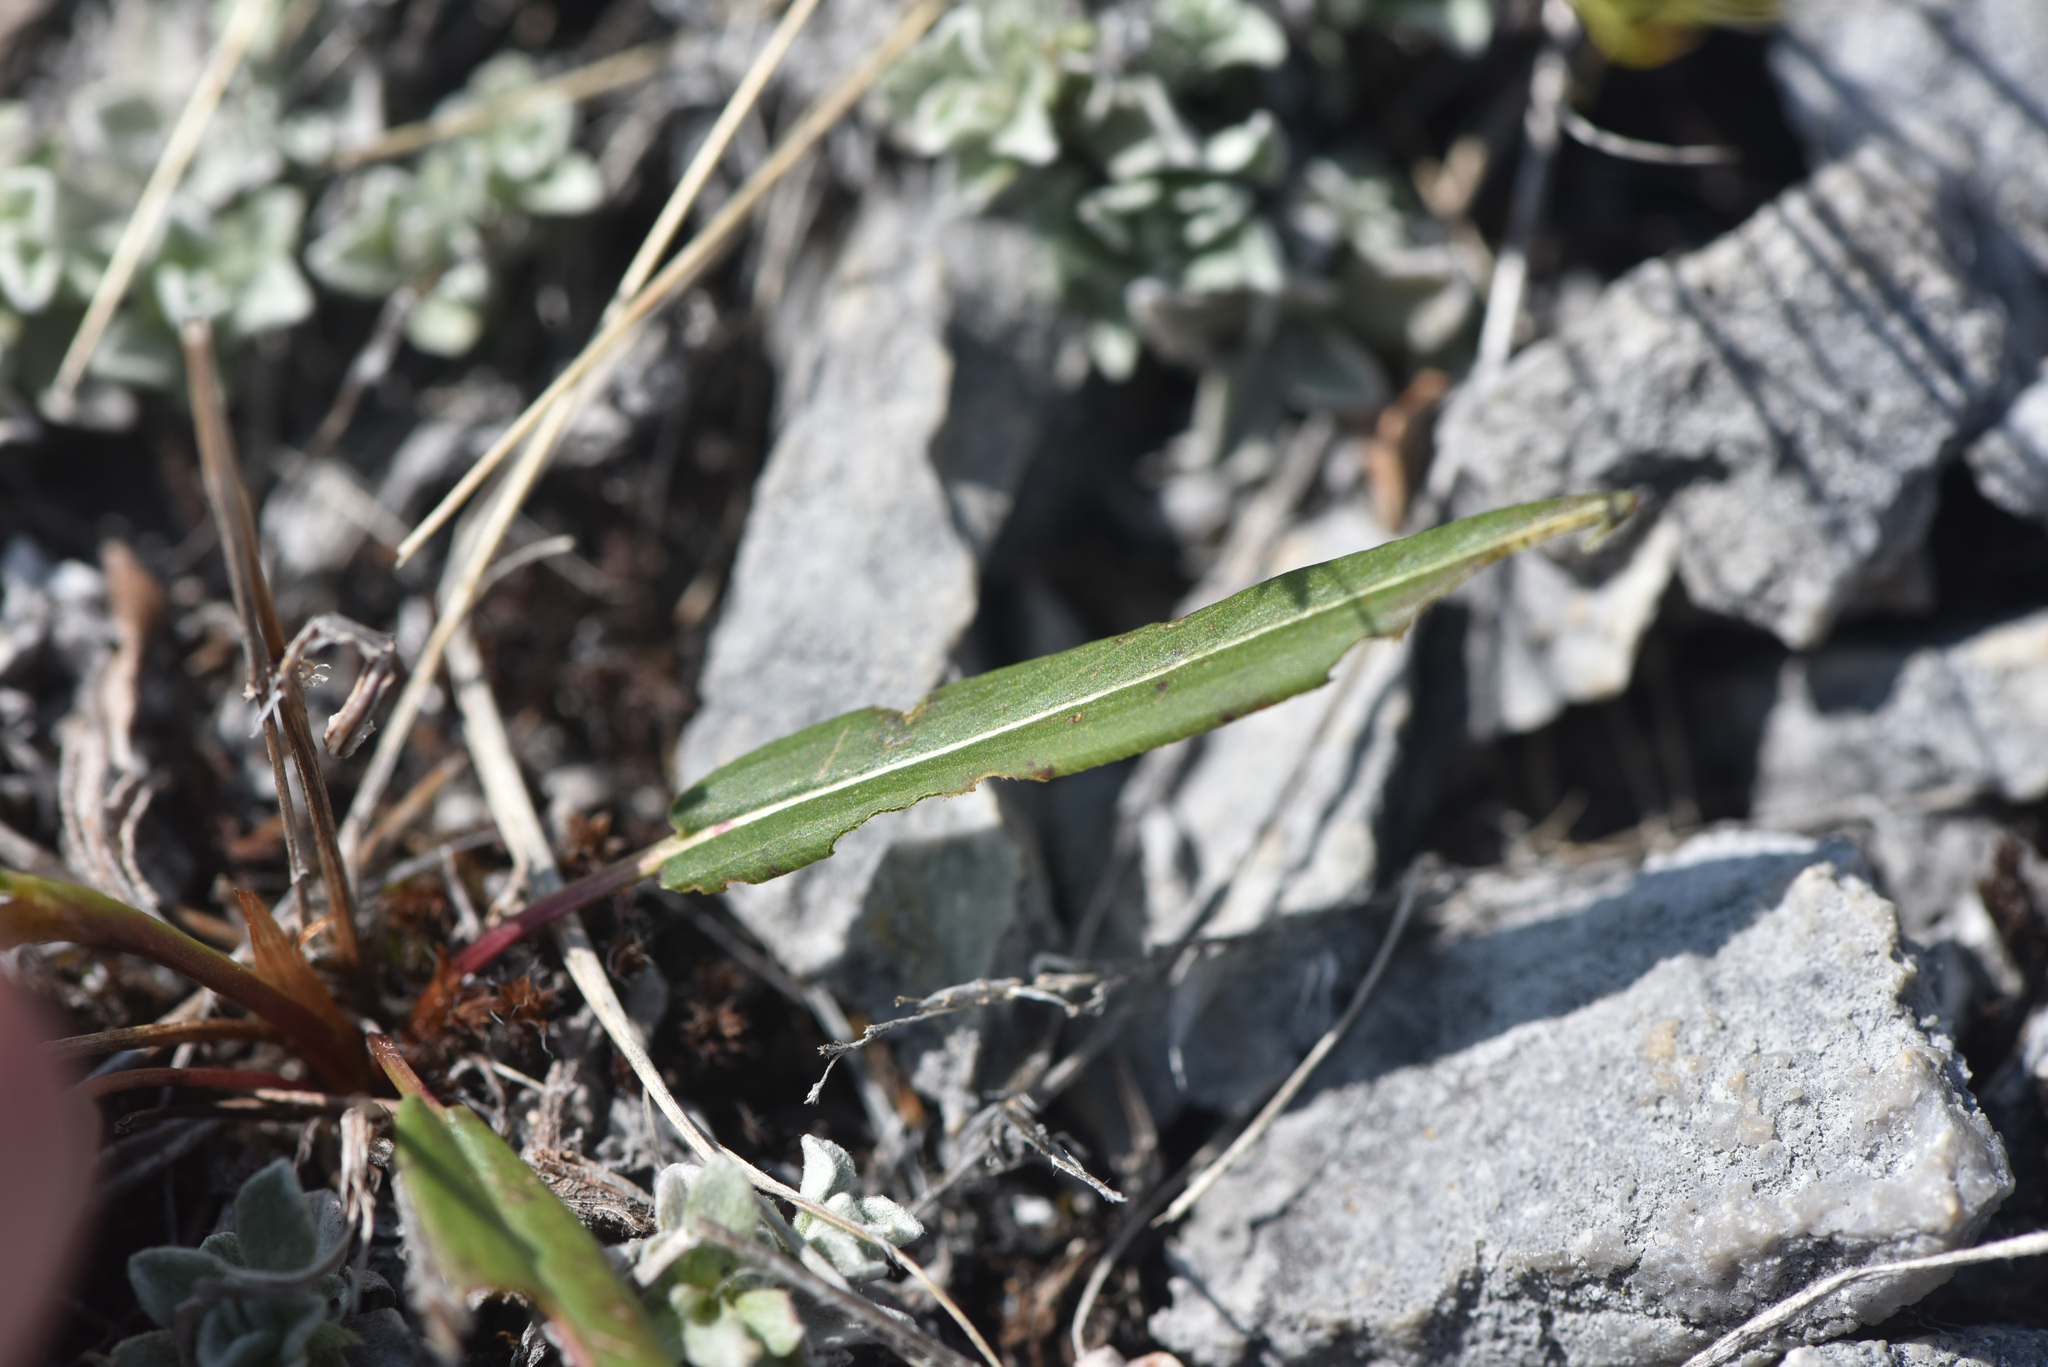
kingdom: Plantae
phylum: Tracheophyta
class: Magnoliopsida
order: Caryophyllales
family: Polygonaceae
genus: Bistorta
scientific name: Bistorta vivipara
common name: Alpine bistort
